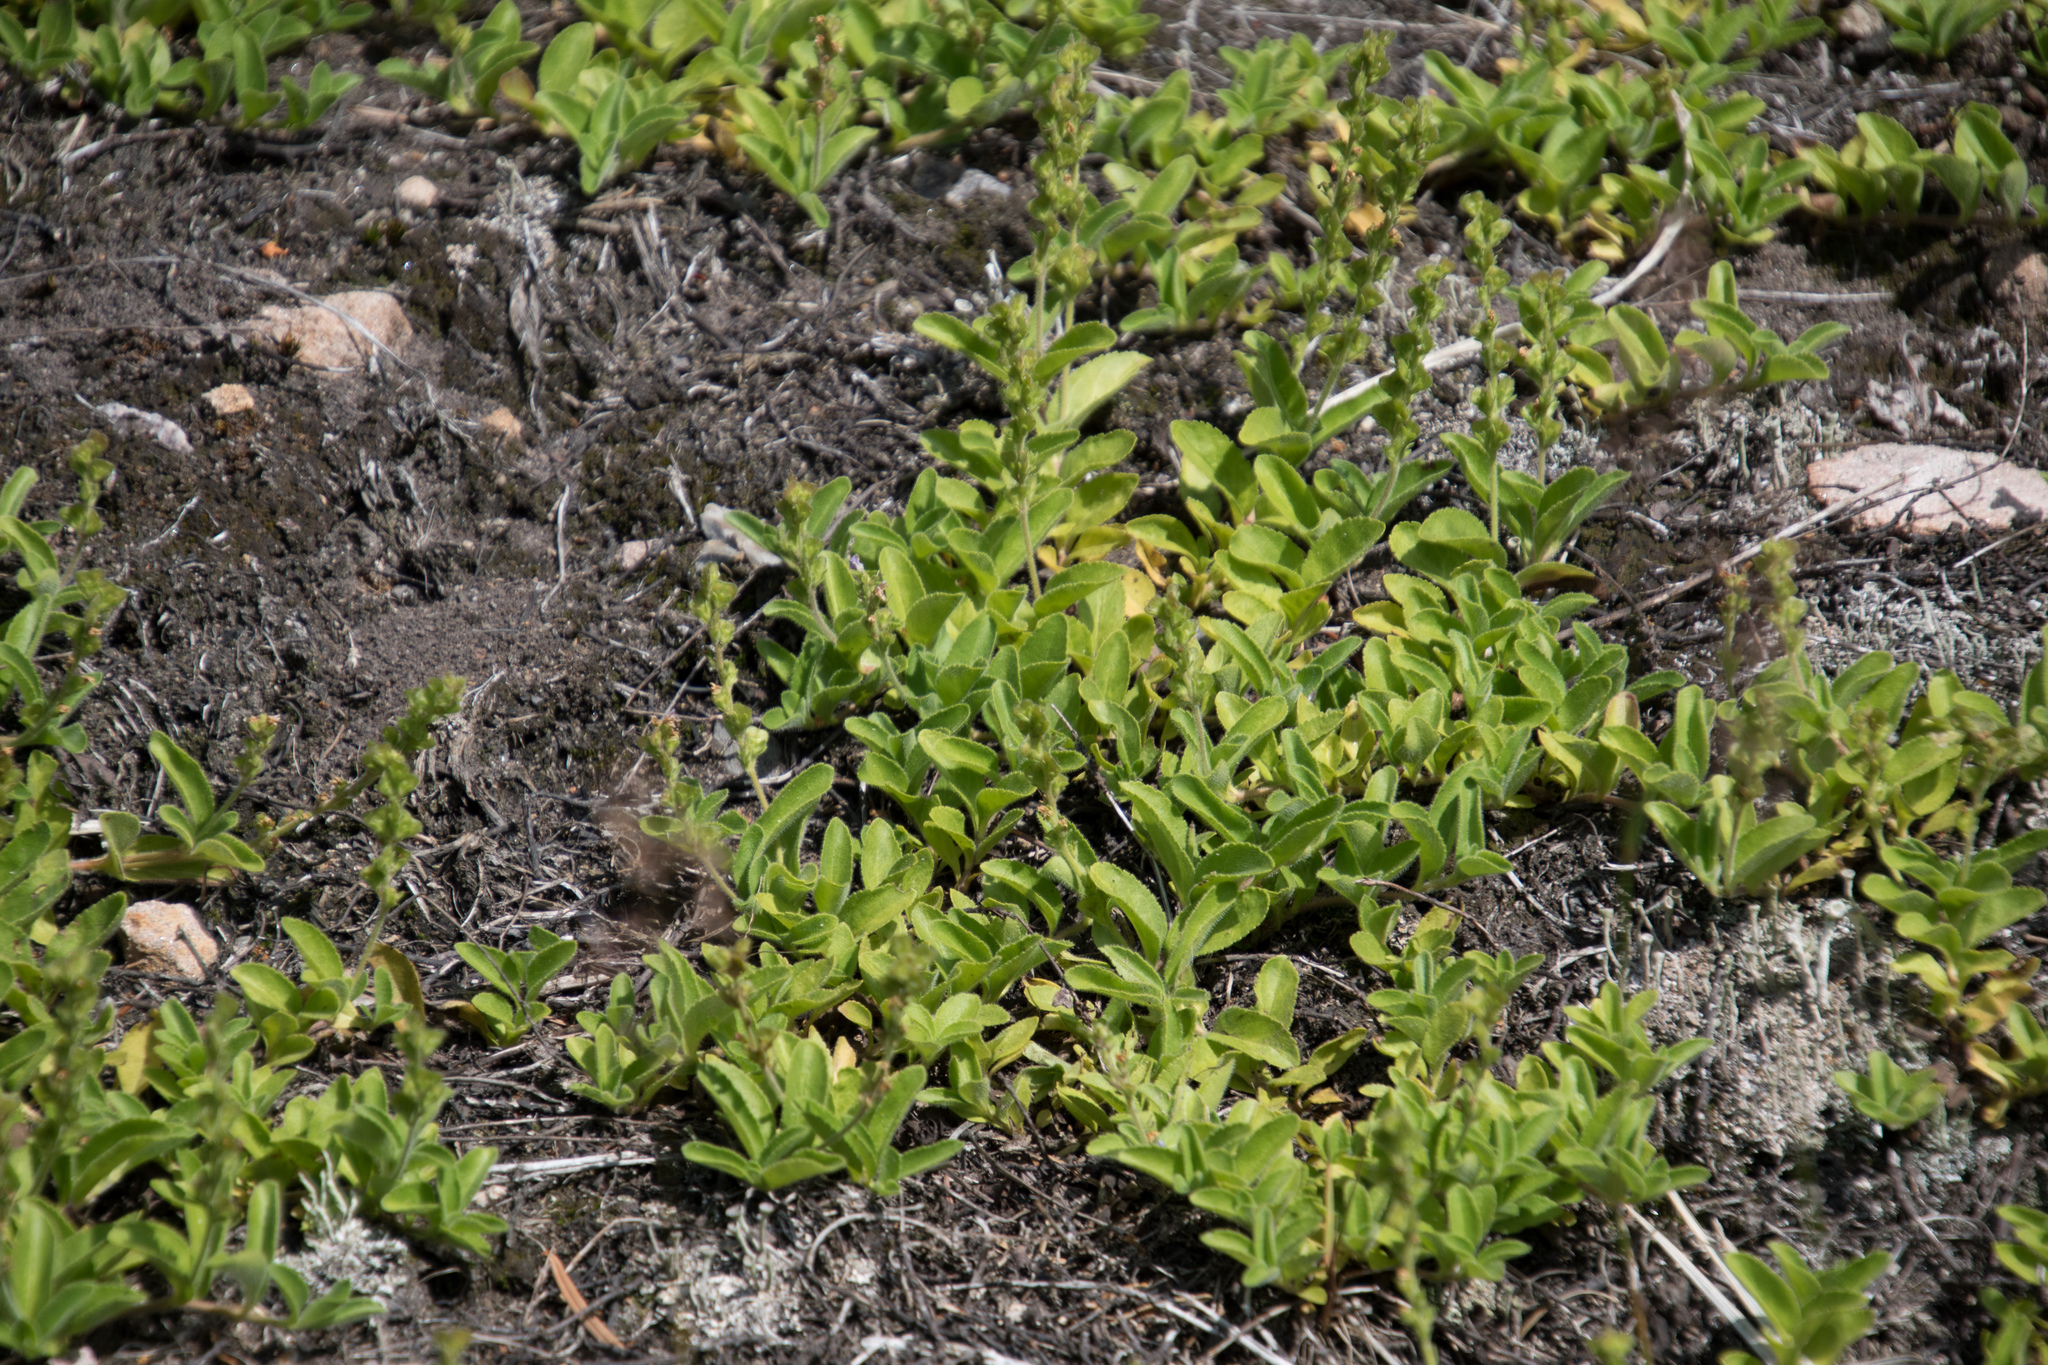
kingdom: Plantae
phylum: Tracheophyta
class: Magnoliopsida
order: Lamiales
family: Plantaginaceae
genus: Veronica
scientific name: Veronica officinalis
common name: Common speedwell
